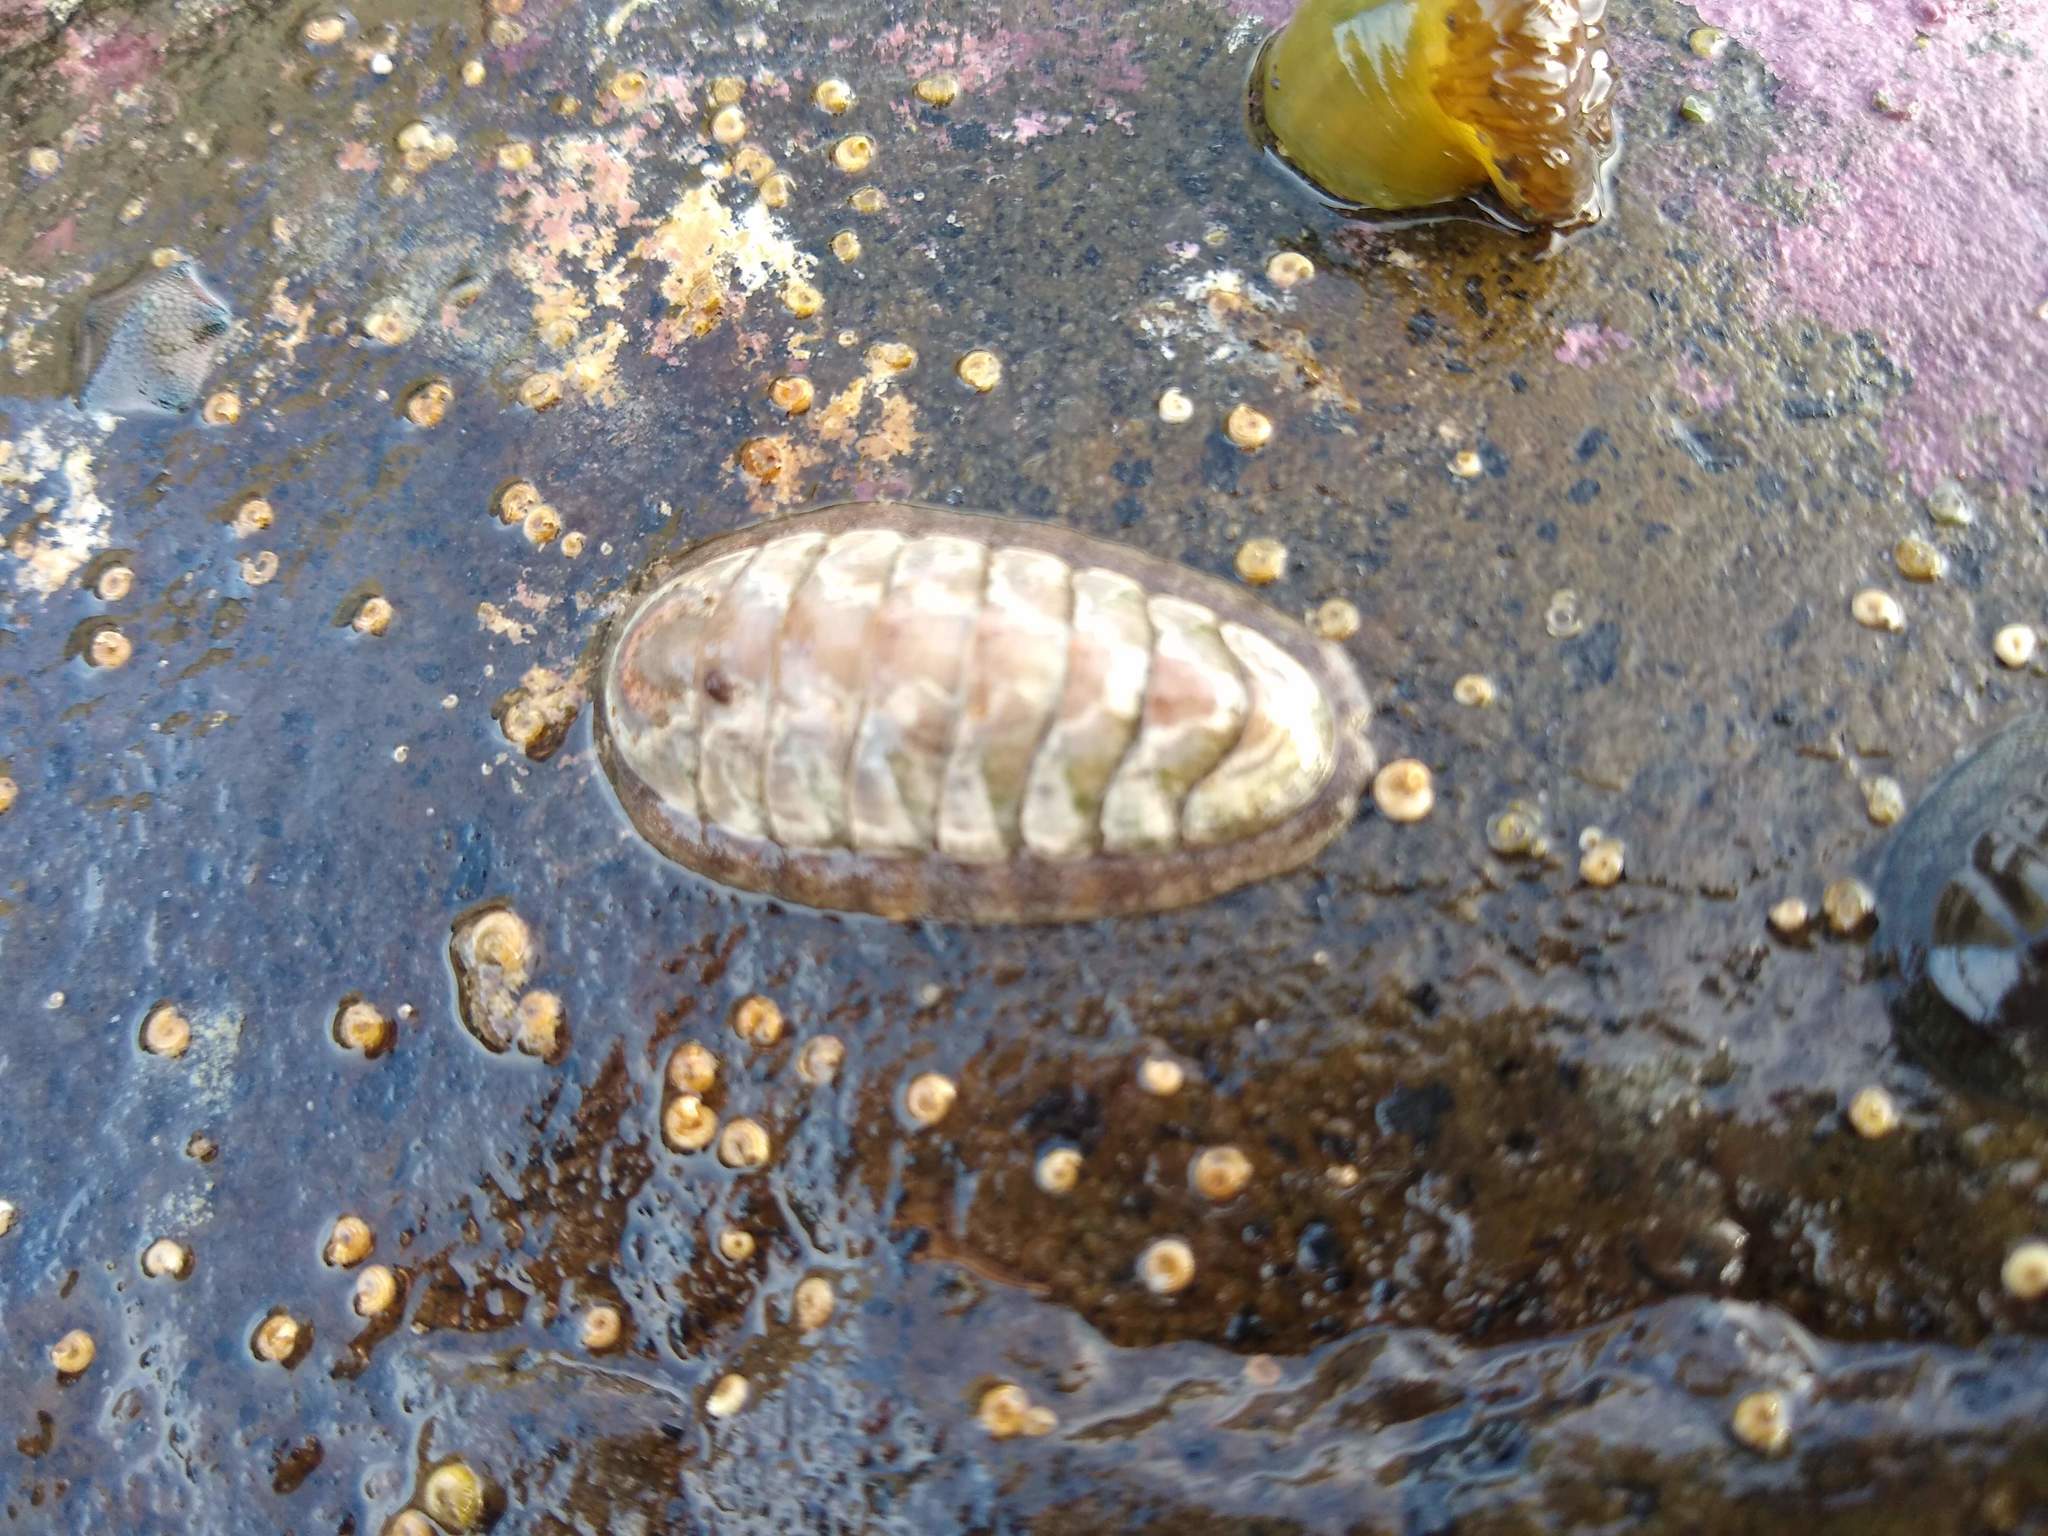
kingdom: Animalia
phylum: Mollusca
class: Polyplacophora
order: Chitonida
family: Ischnochitonidae
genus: Ischnochiton
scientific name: Ischnochiton maorianus
